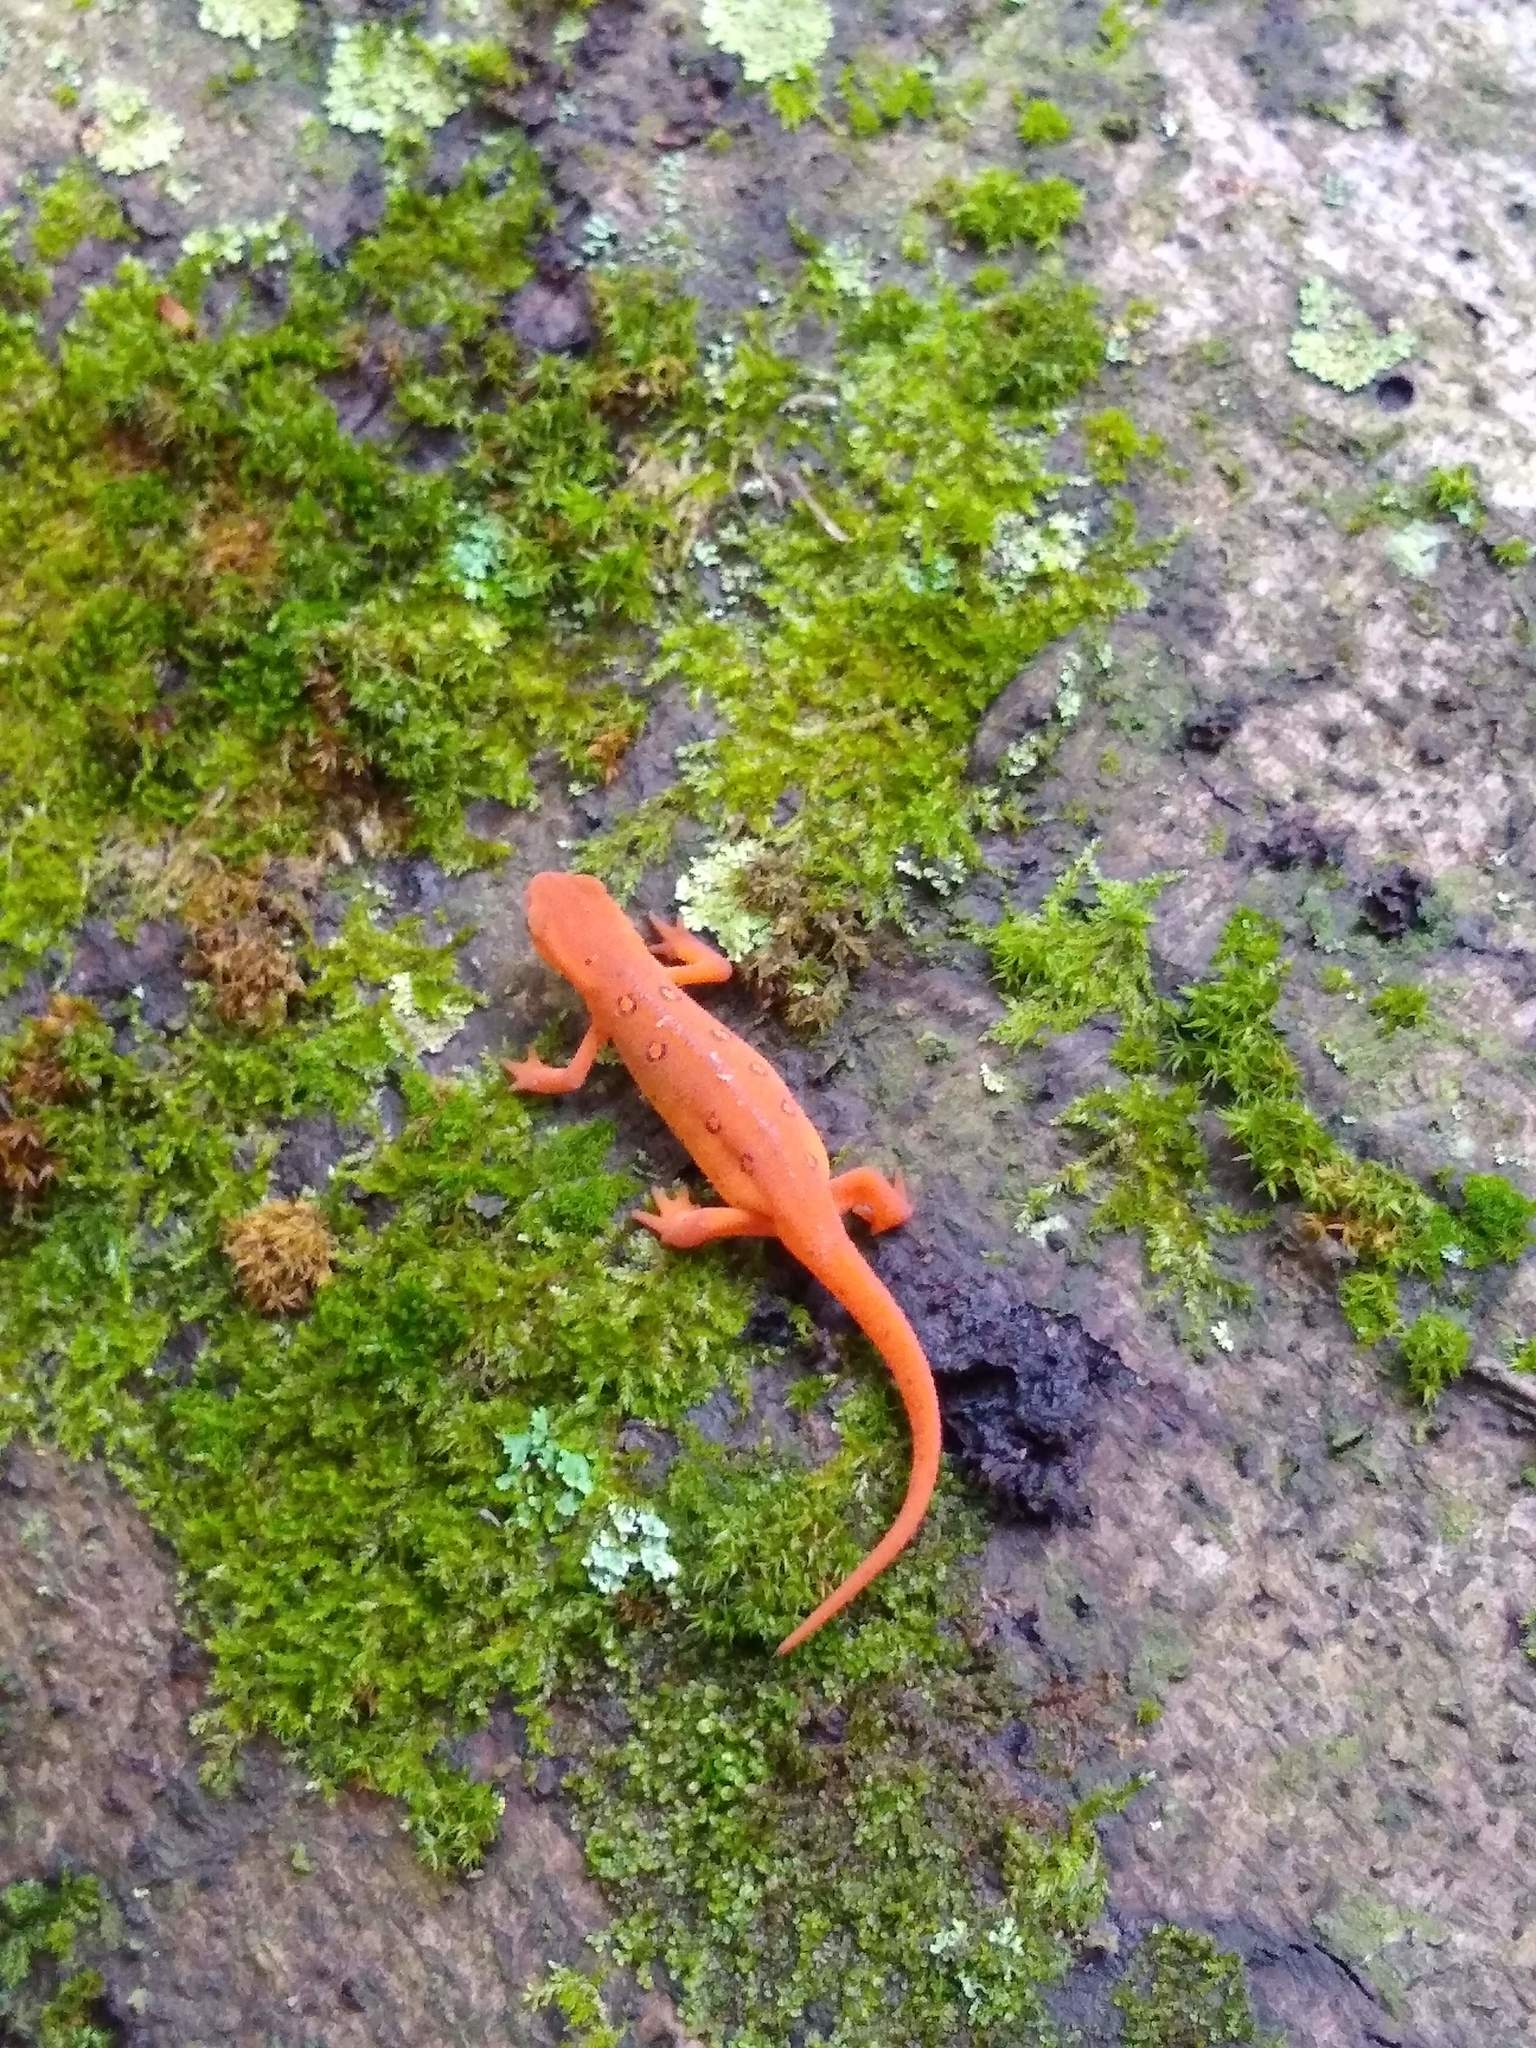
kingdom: Animalia
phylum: Chordata
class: Amphibia
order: Caudata
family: Salamandridae
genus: Notophthalmus
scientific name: Notophthalmus viridescens
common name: Eastern newt
